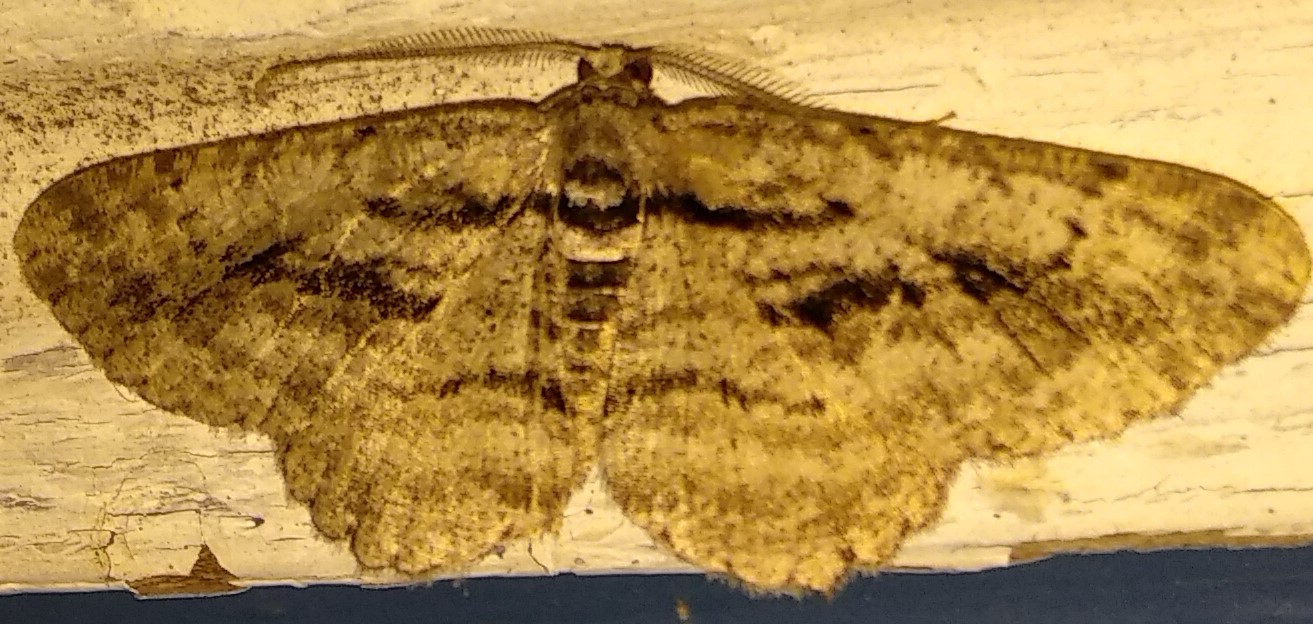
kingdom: Animalia
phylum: Arthropoda
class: Insecta
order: Lepidoptera
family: Geometridae
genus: Anavitrinella
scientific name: Anavitrinella pampinaria
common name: Common gray
